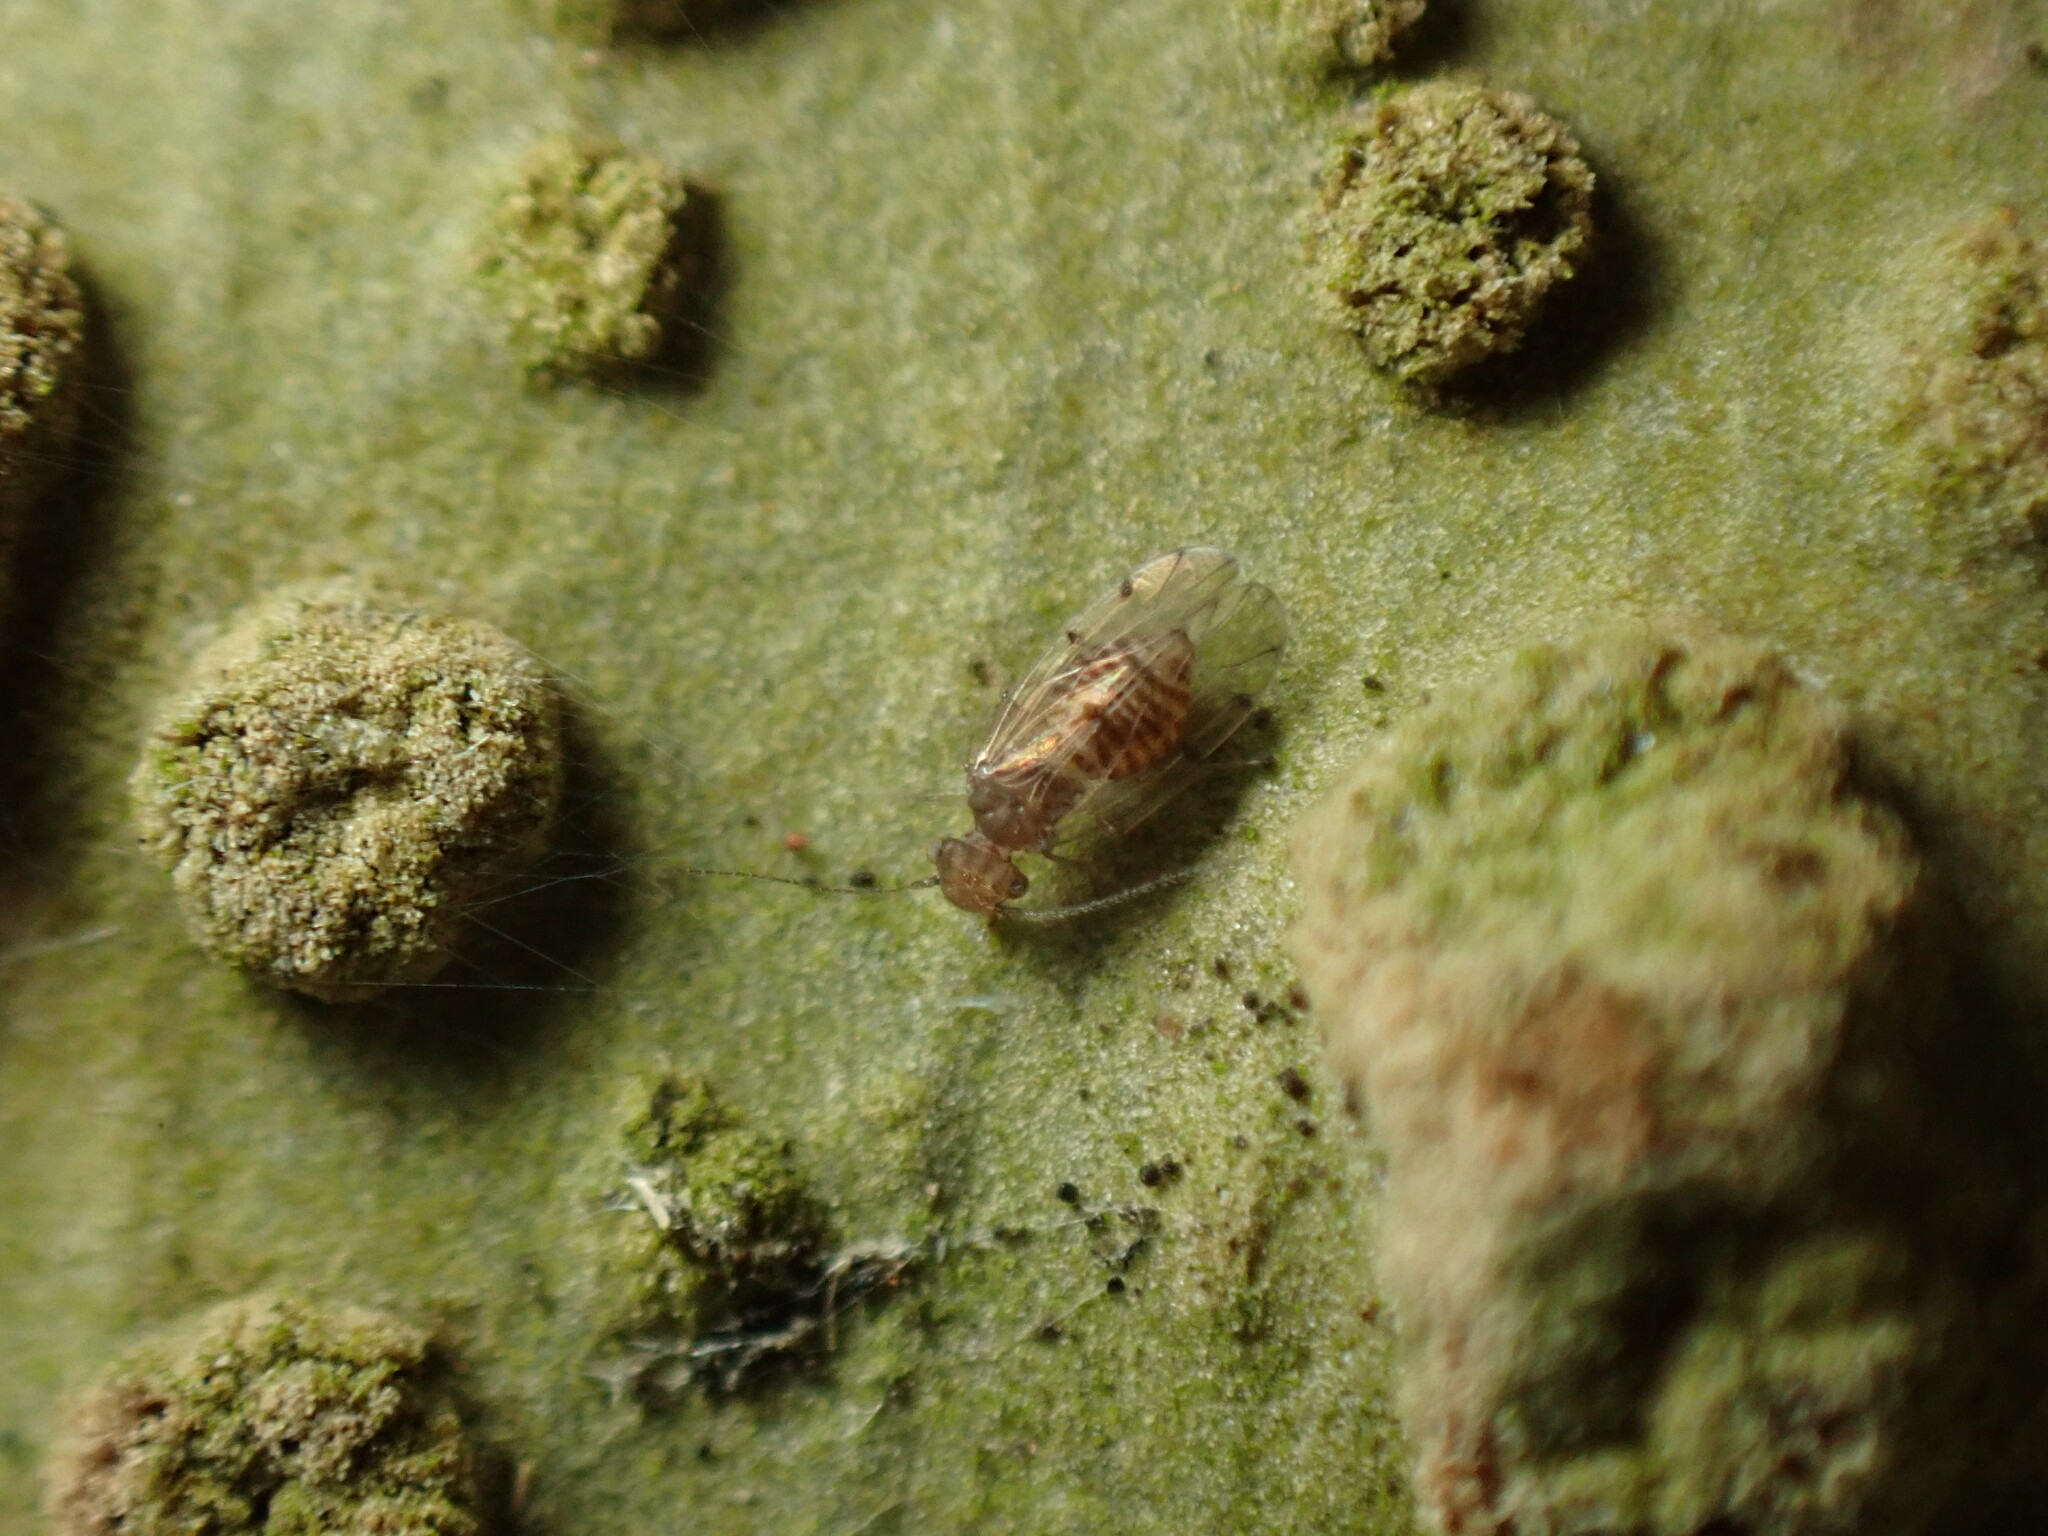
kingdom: Animalia
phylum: Arthropoda
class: Arachnida
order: Trombidiformes
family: Eriophyidae
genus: Acalitus
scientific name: Acalitus
